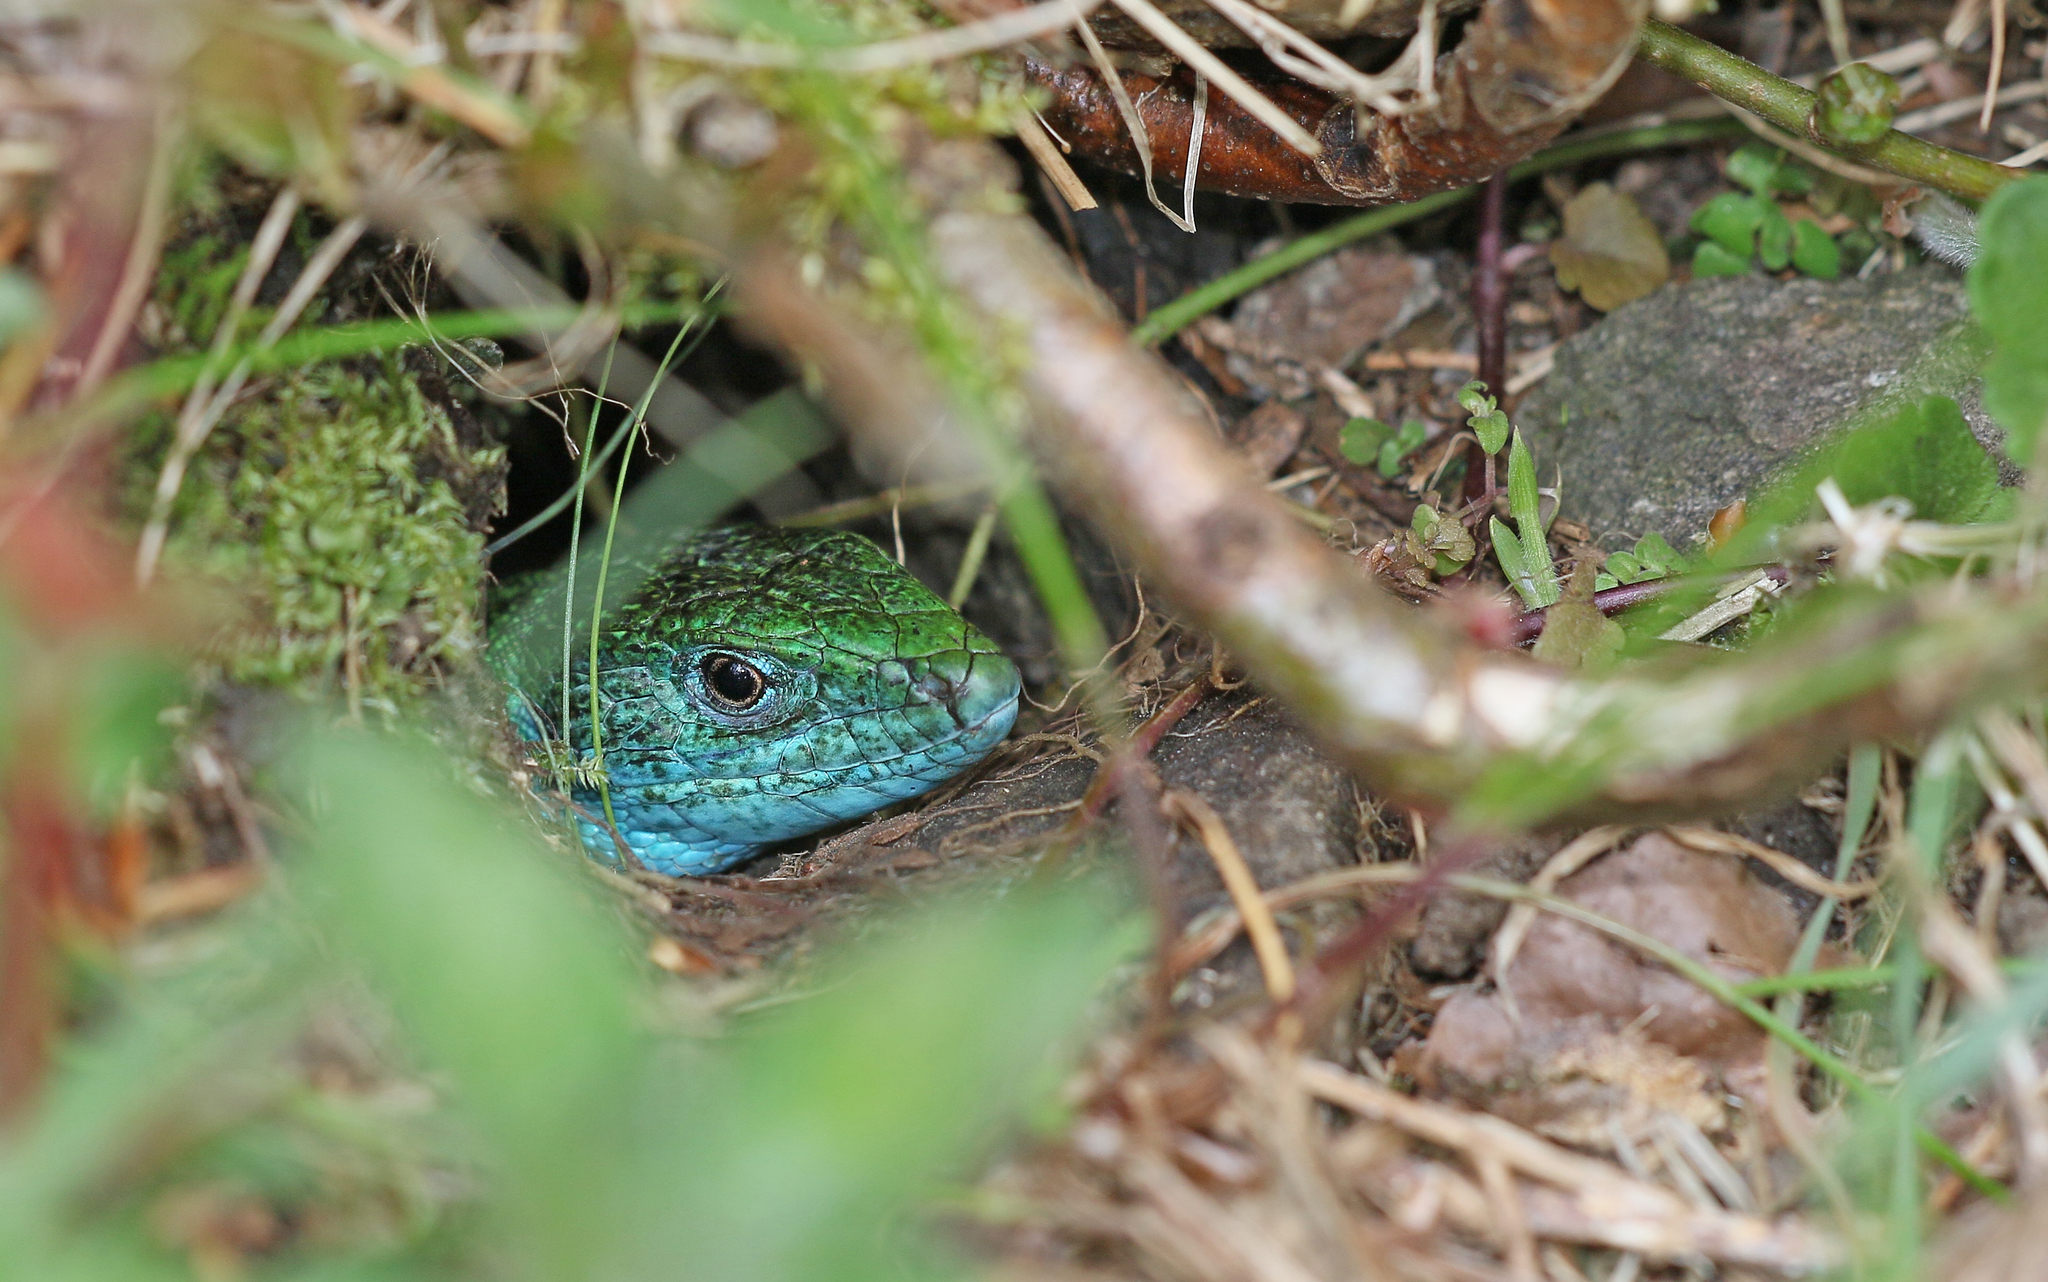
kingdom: Animalia
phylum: Chordata
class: Squamata
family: Lacertidae
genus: Lacerta
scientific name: Lacerta viridis
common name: European green lizard
